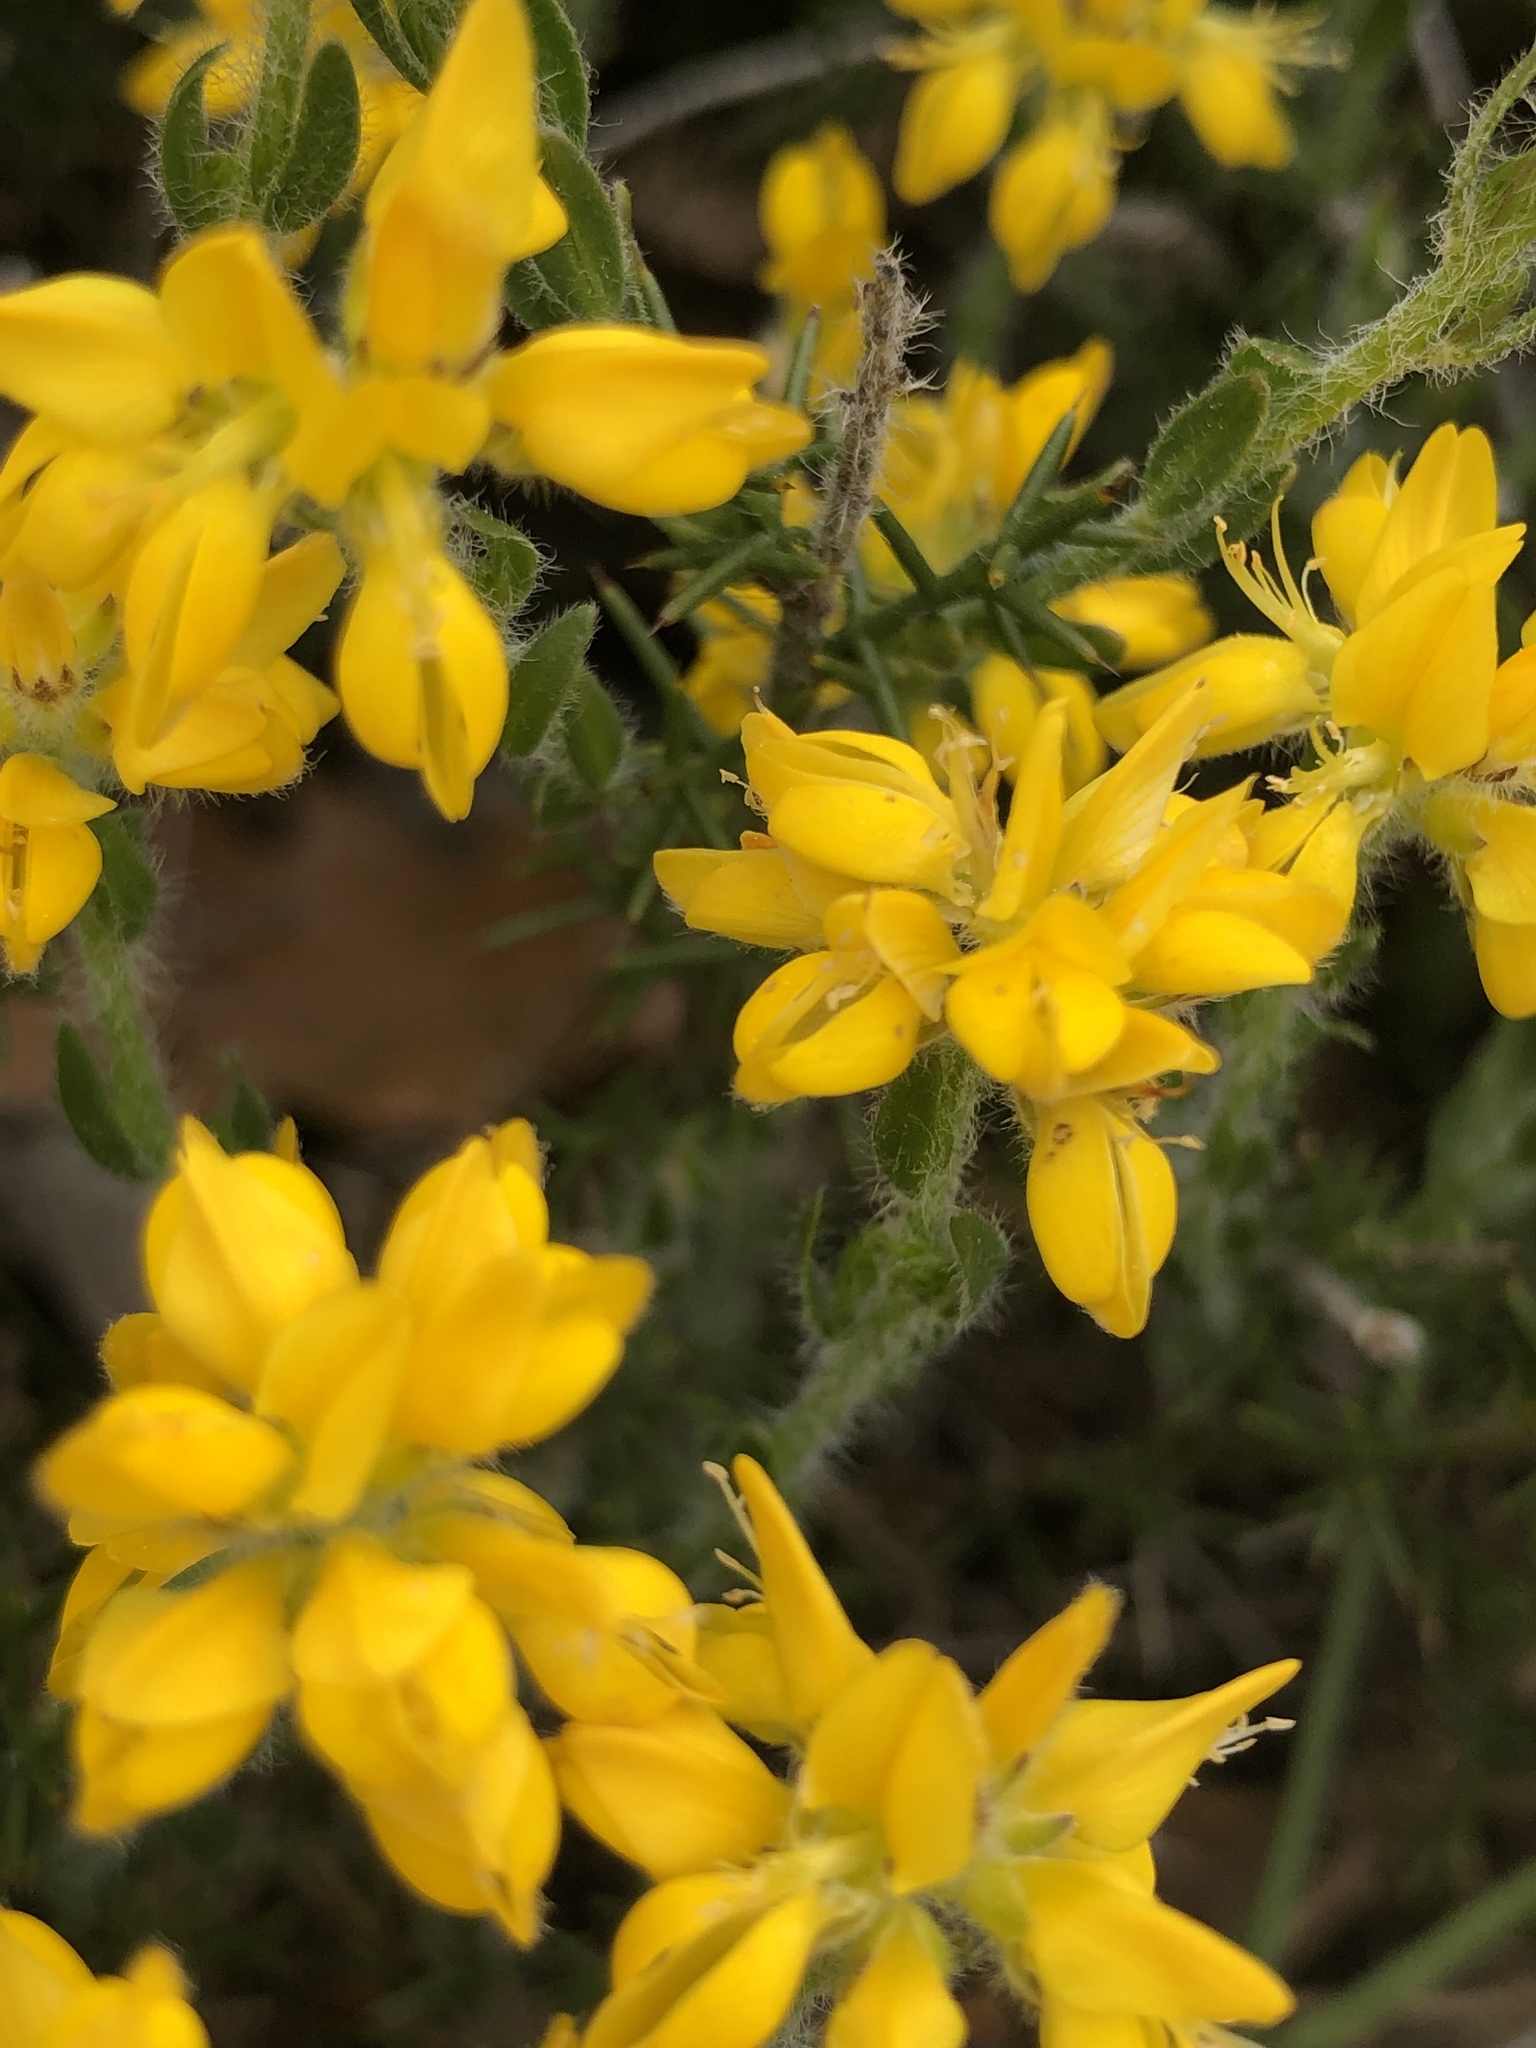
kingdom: Plantae
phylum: Tracheophyta
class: Magnoliopsida
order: Fabales
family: Fabaceae
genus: Genista
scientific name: Genista hispanica
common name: Spanish gorse
